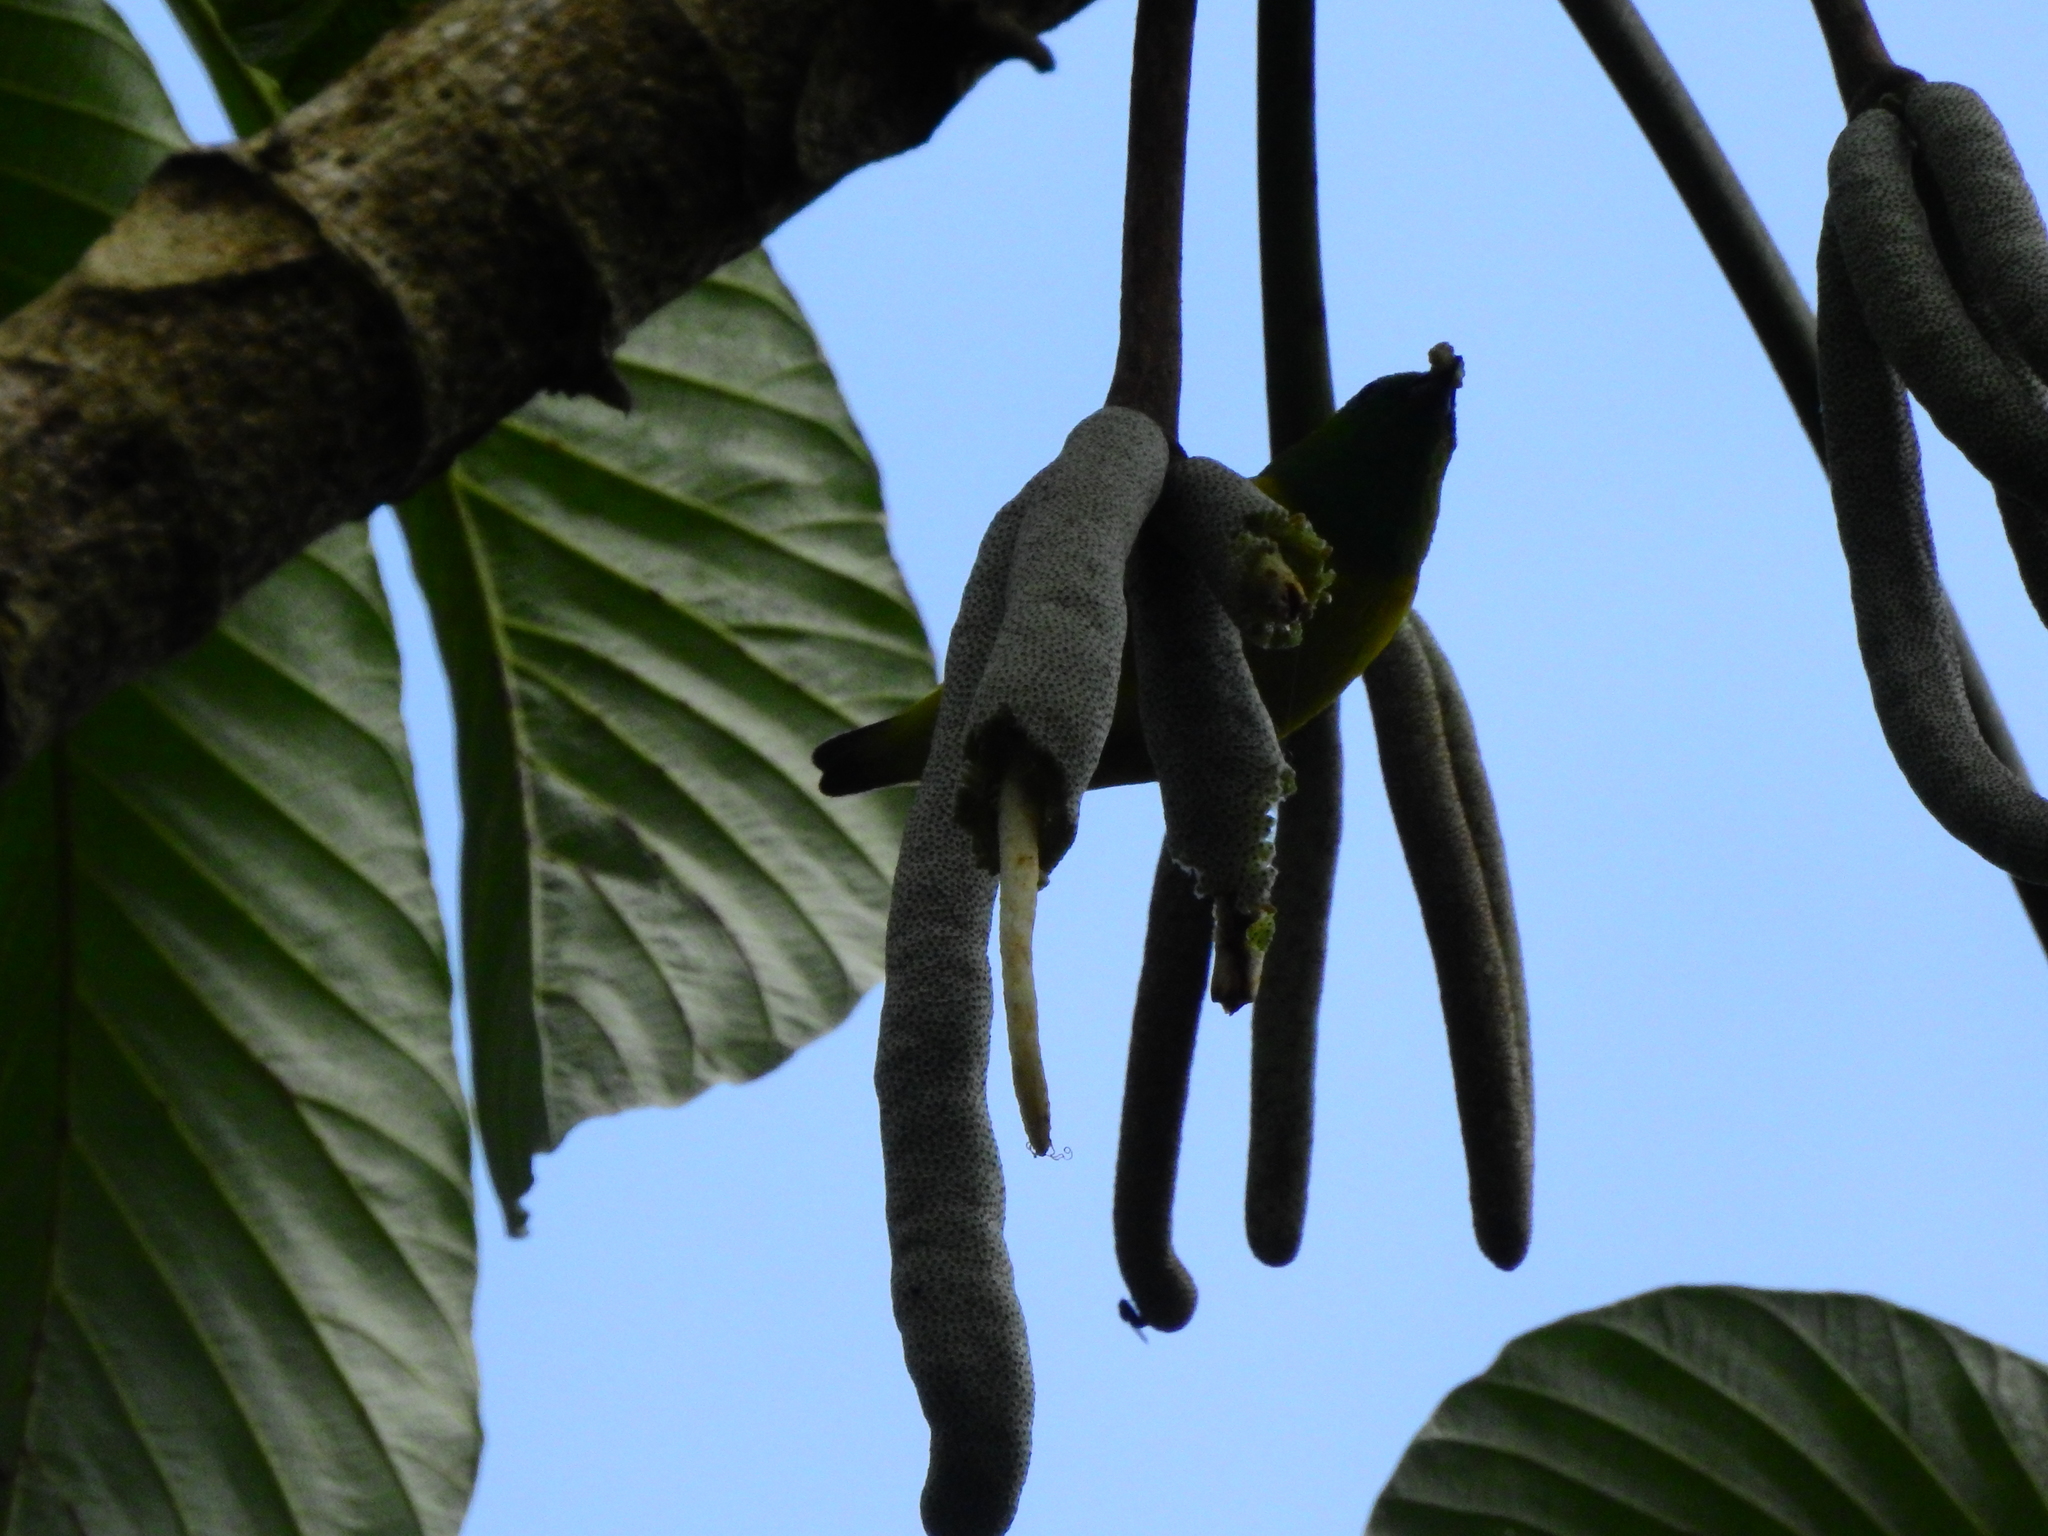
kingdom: Plantae
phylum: Tracheophyta
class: Magnoliopsida
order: Rosales
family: Urticaceae
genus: Cecropia
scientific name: Cecropia pachystachya
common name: Ambay pumpwood
